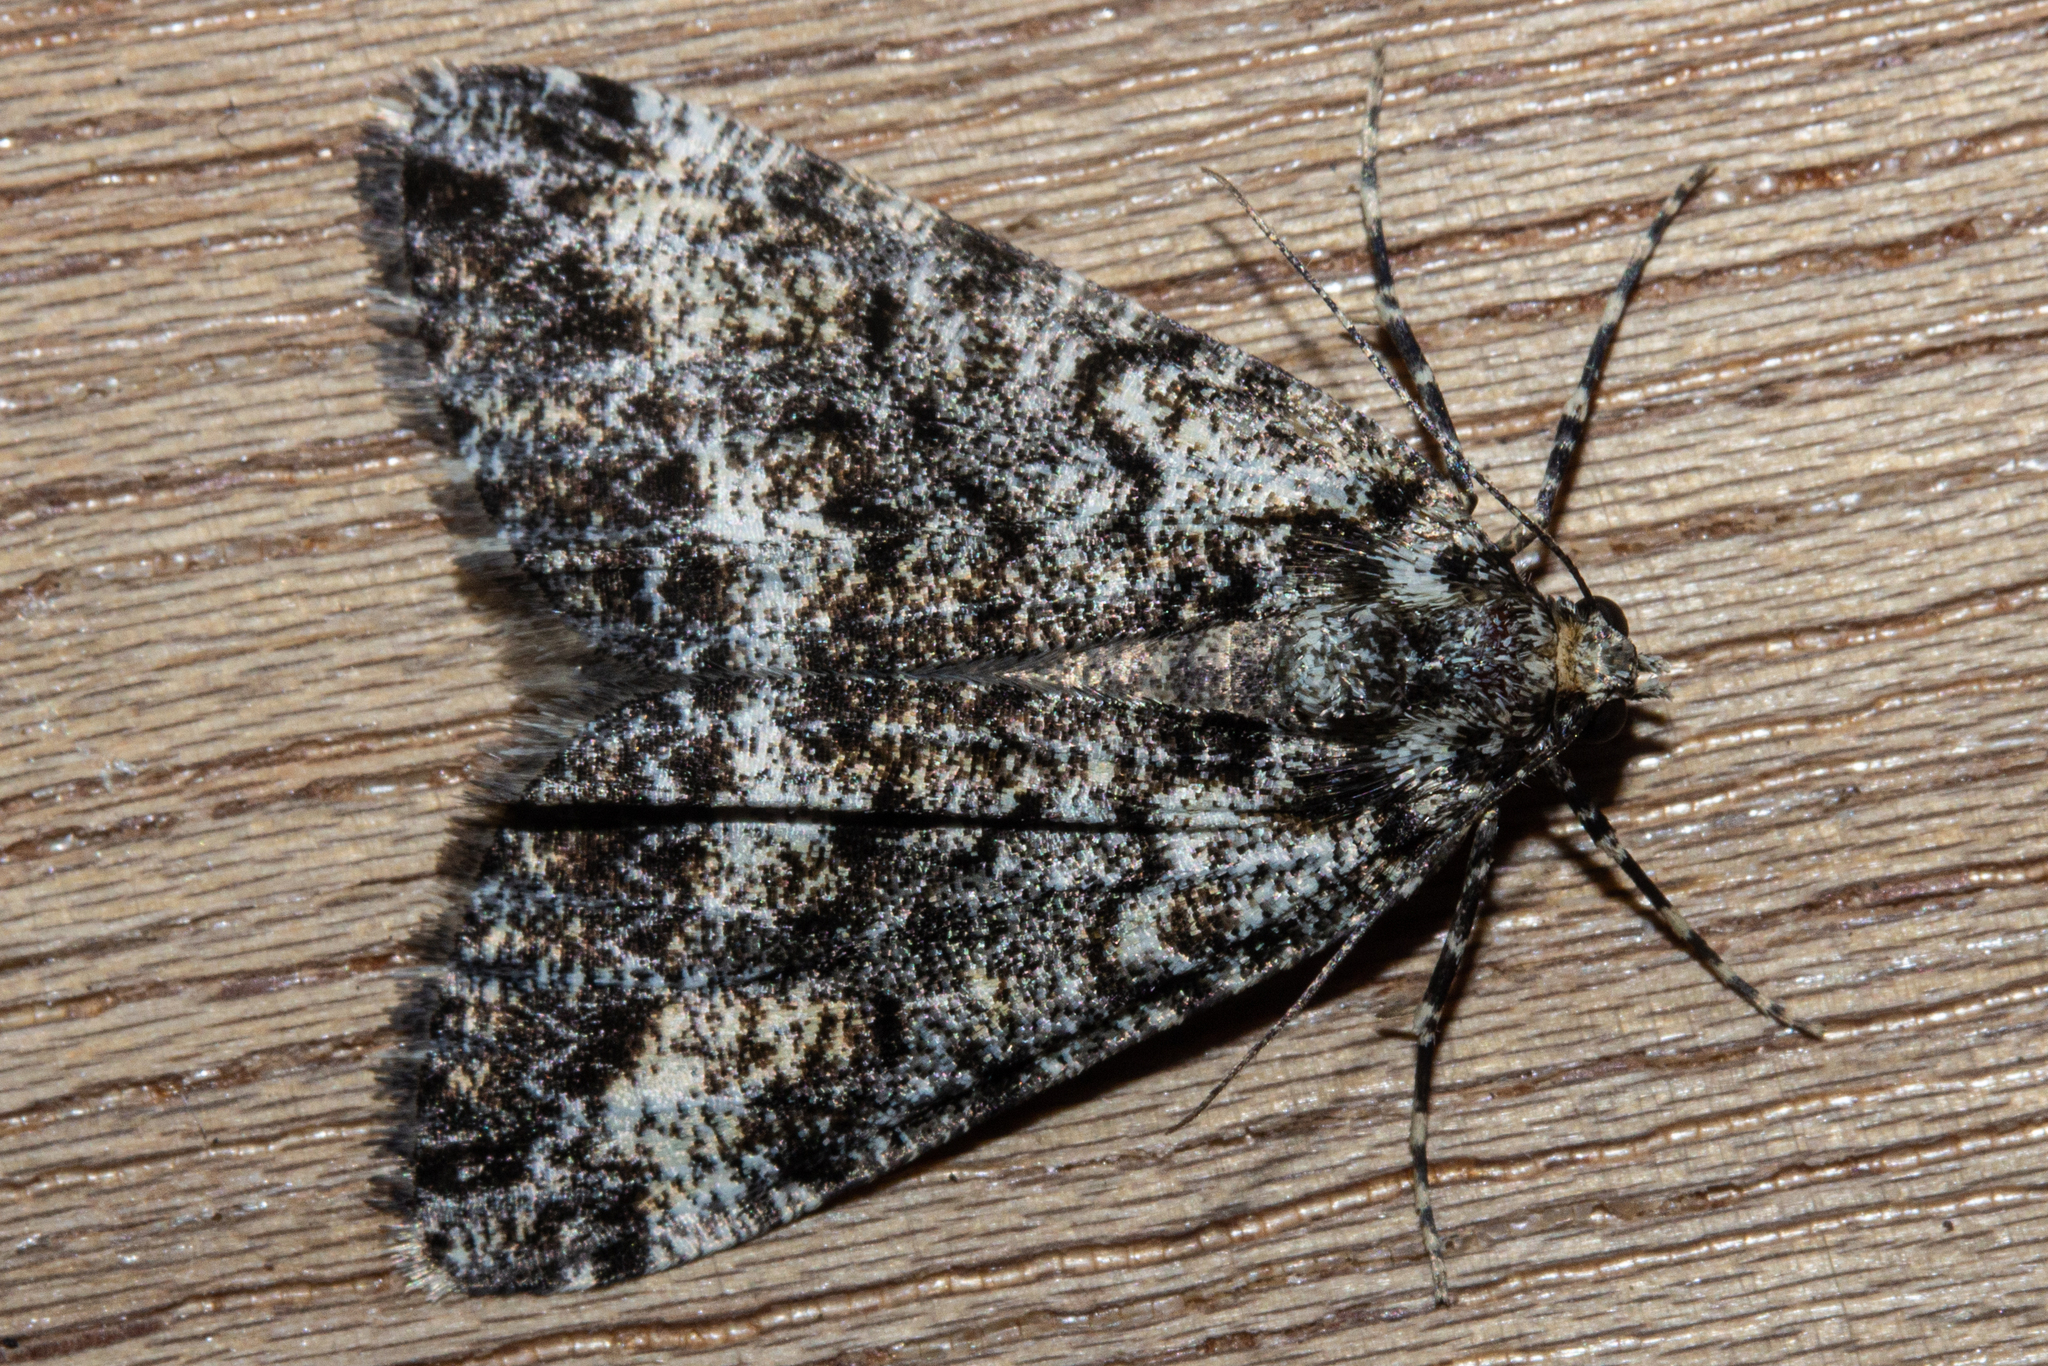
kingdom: Animalia
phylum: Arthropoda
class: Insecta
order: Lepidoptera
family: Geometridae
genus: Pseudocoremia
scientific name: Pseudocoremia leucelaea
